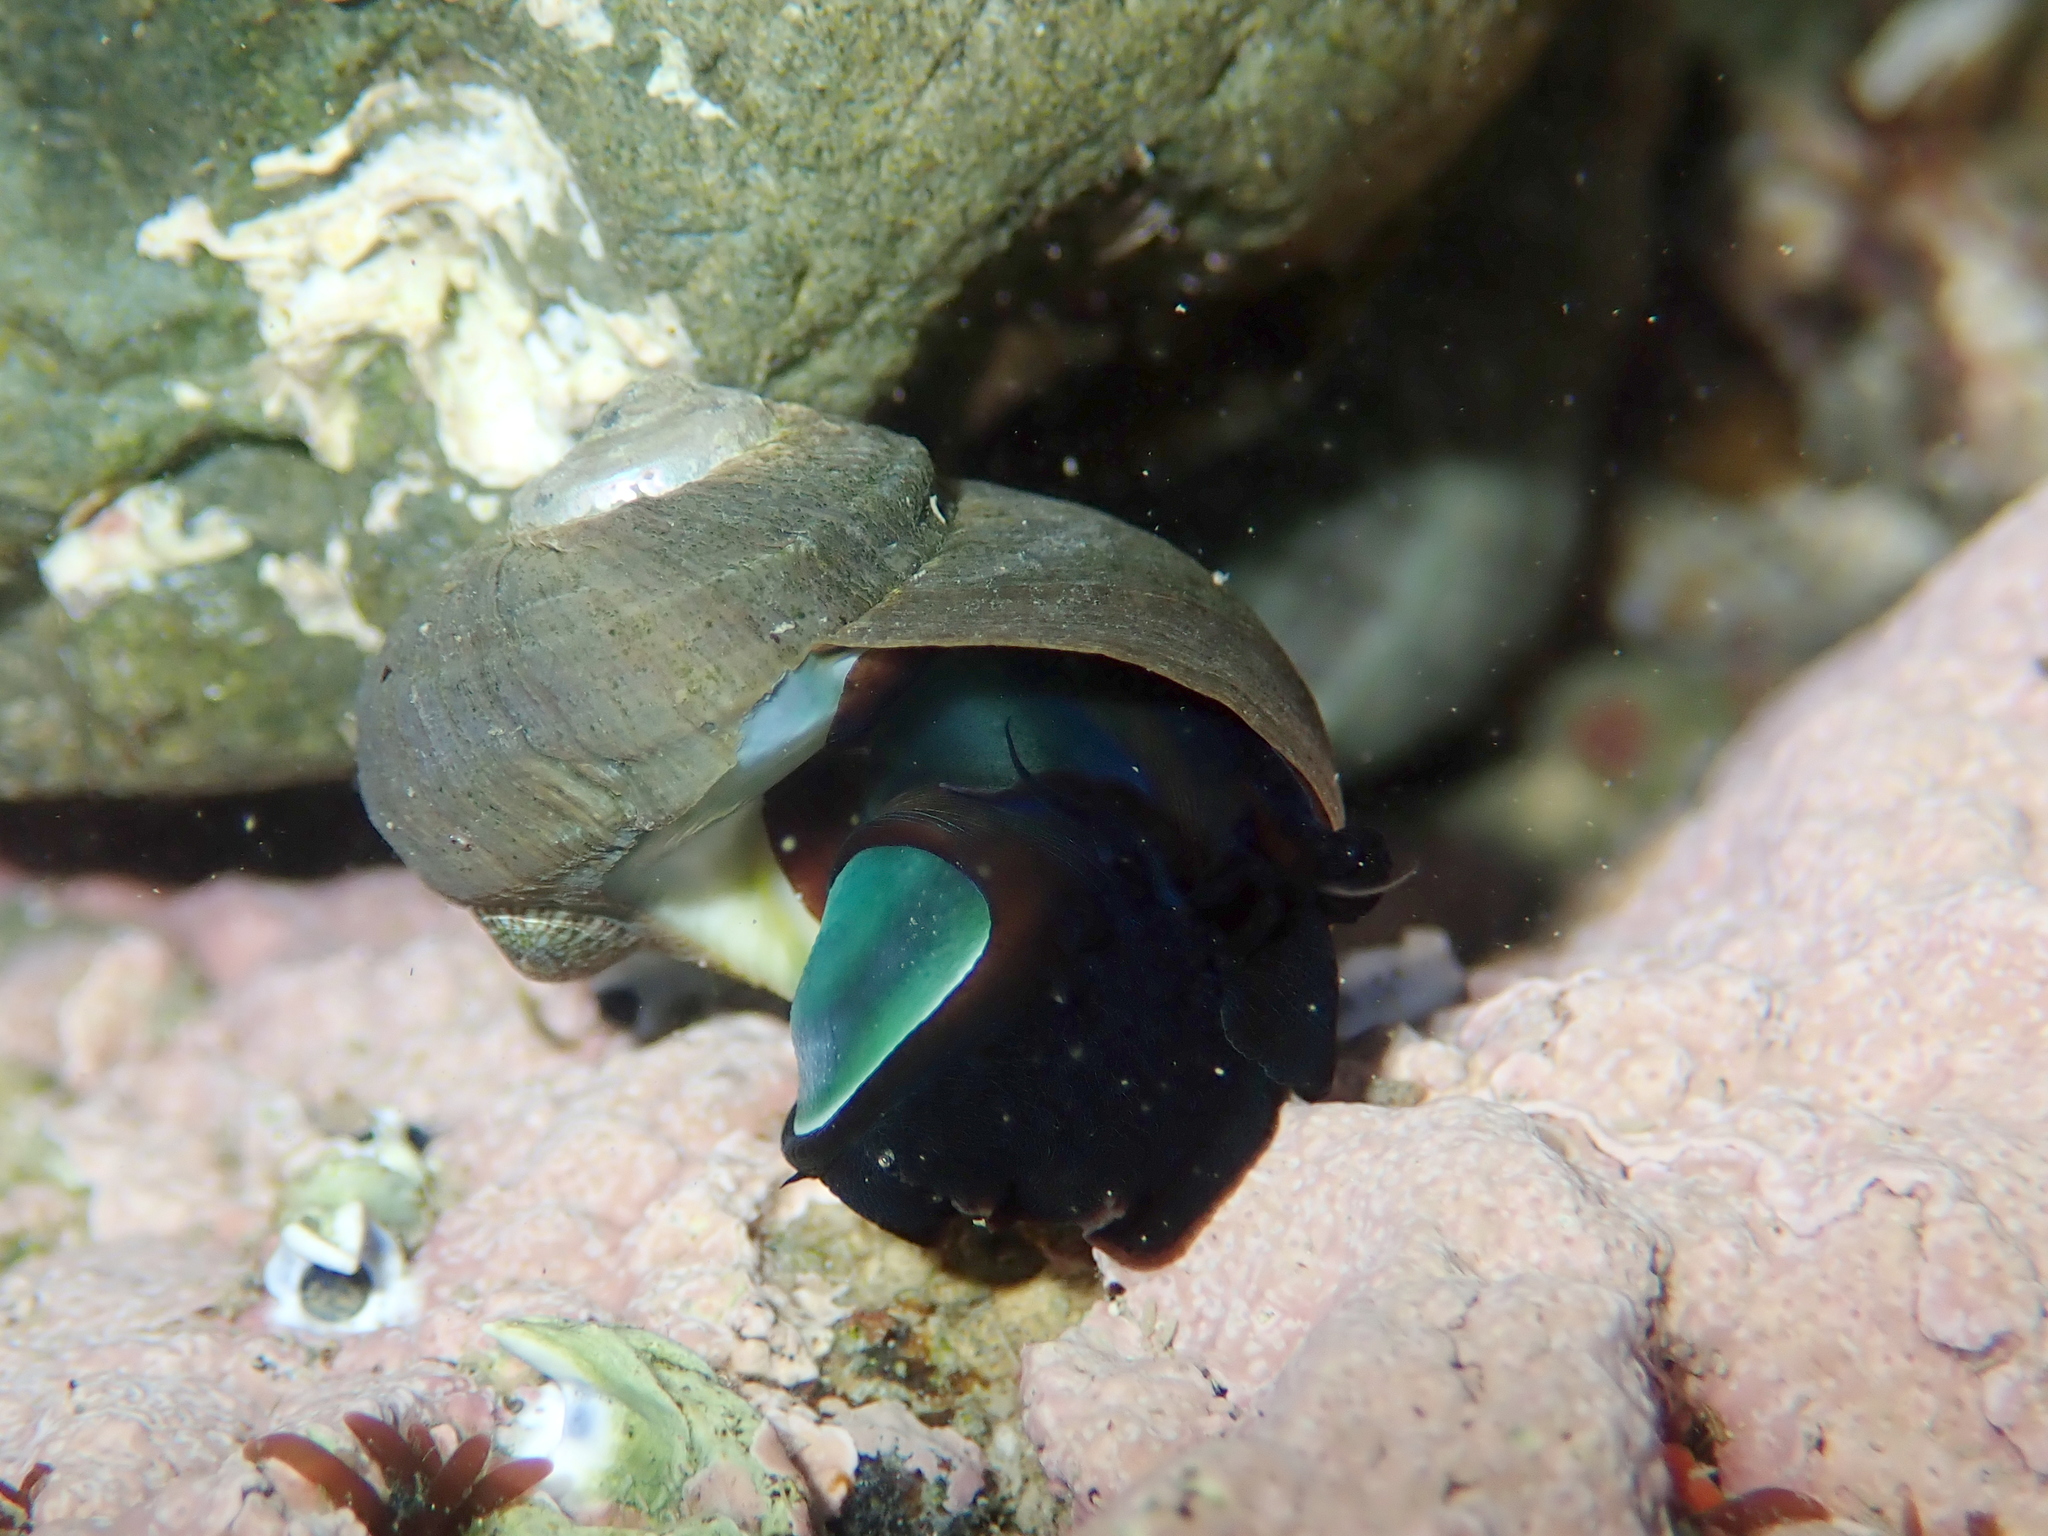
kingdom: Animalia
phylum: Mollusca
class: Gastropoda
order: Trochida
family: Turbinidae
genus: Lunella
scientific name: Lunella smaragda
